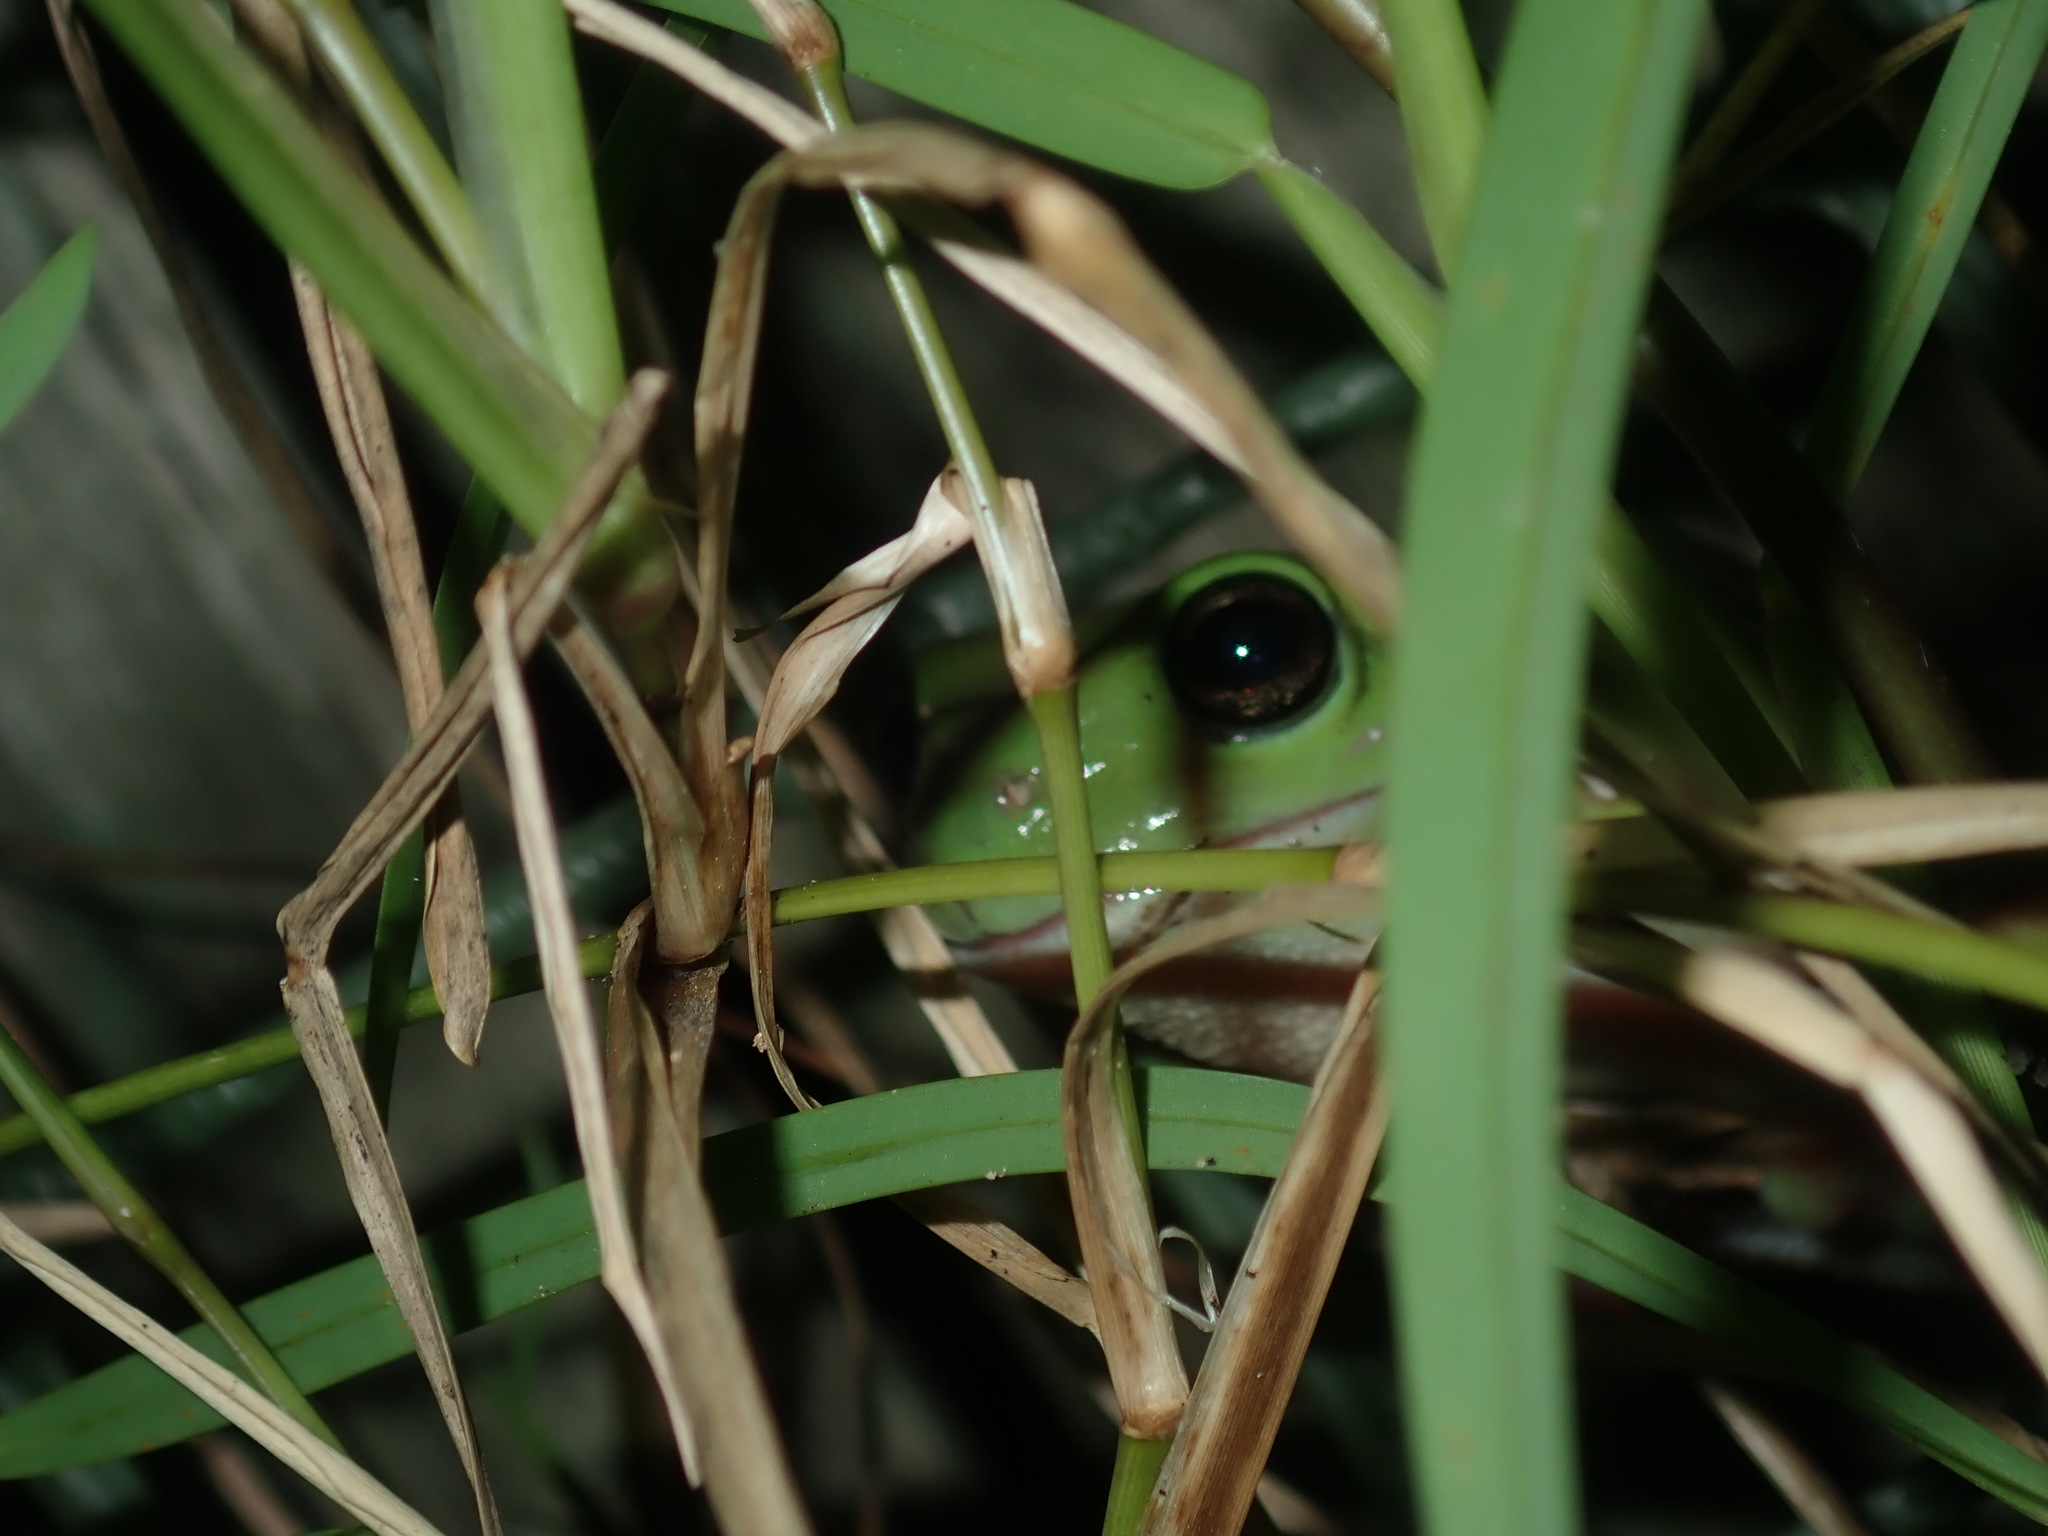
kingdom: Animalia
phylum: Chordata
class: Amphibia
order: Anura
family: Pelodryadidae
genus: Ranoidea
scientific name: Ranoidea caerulea
